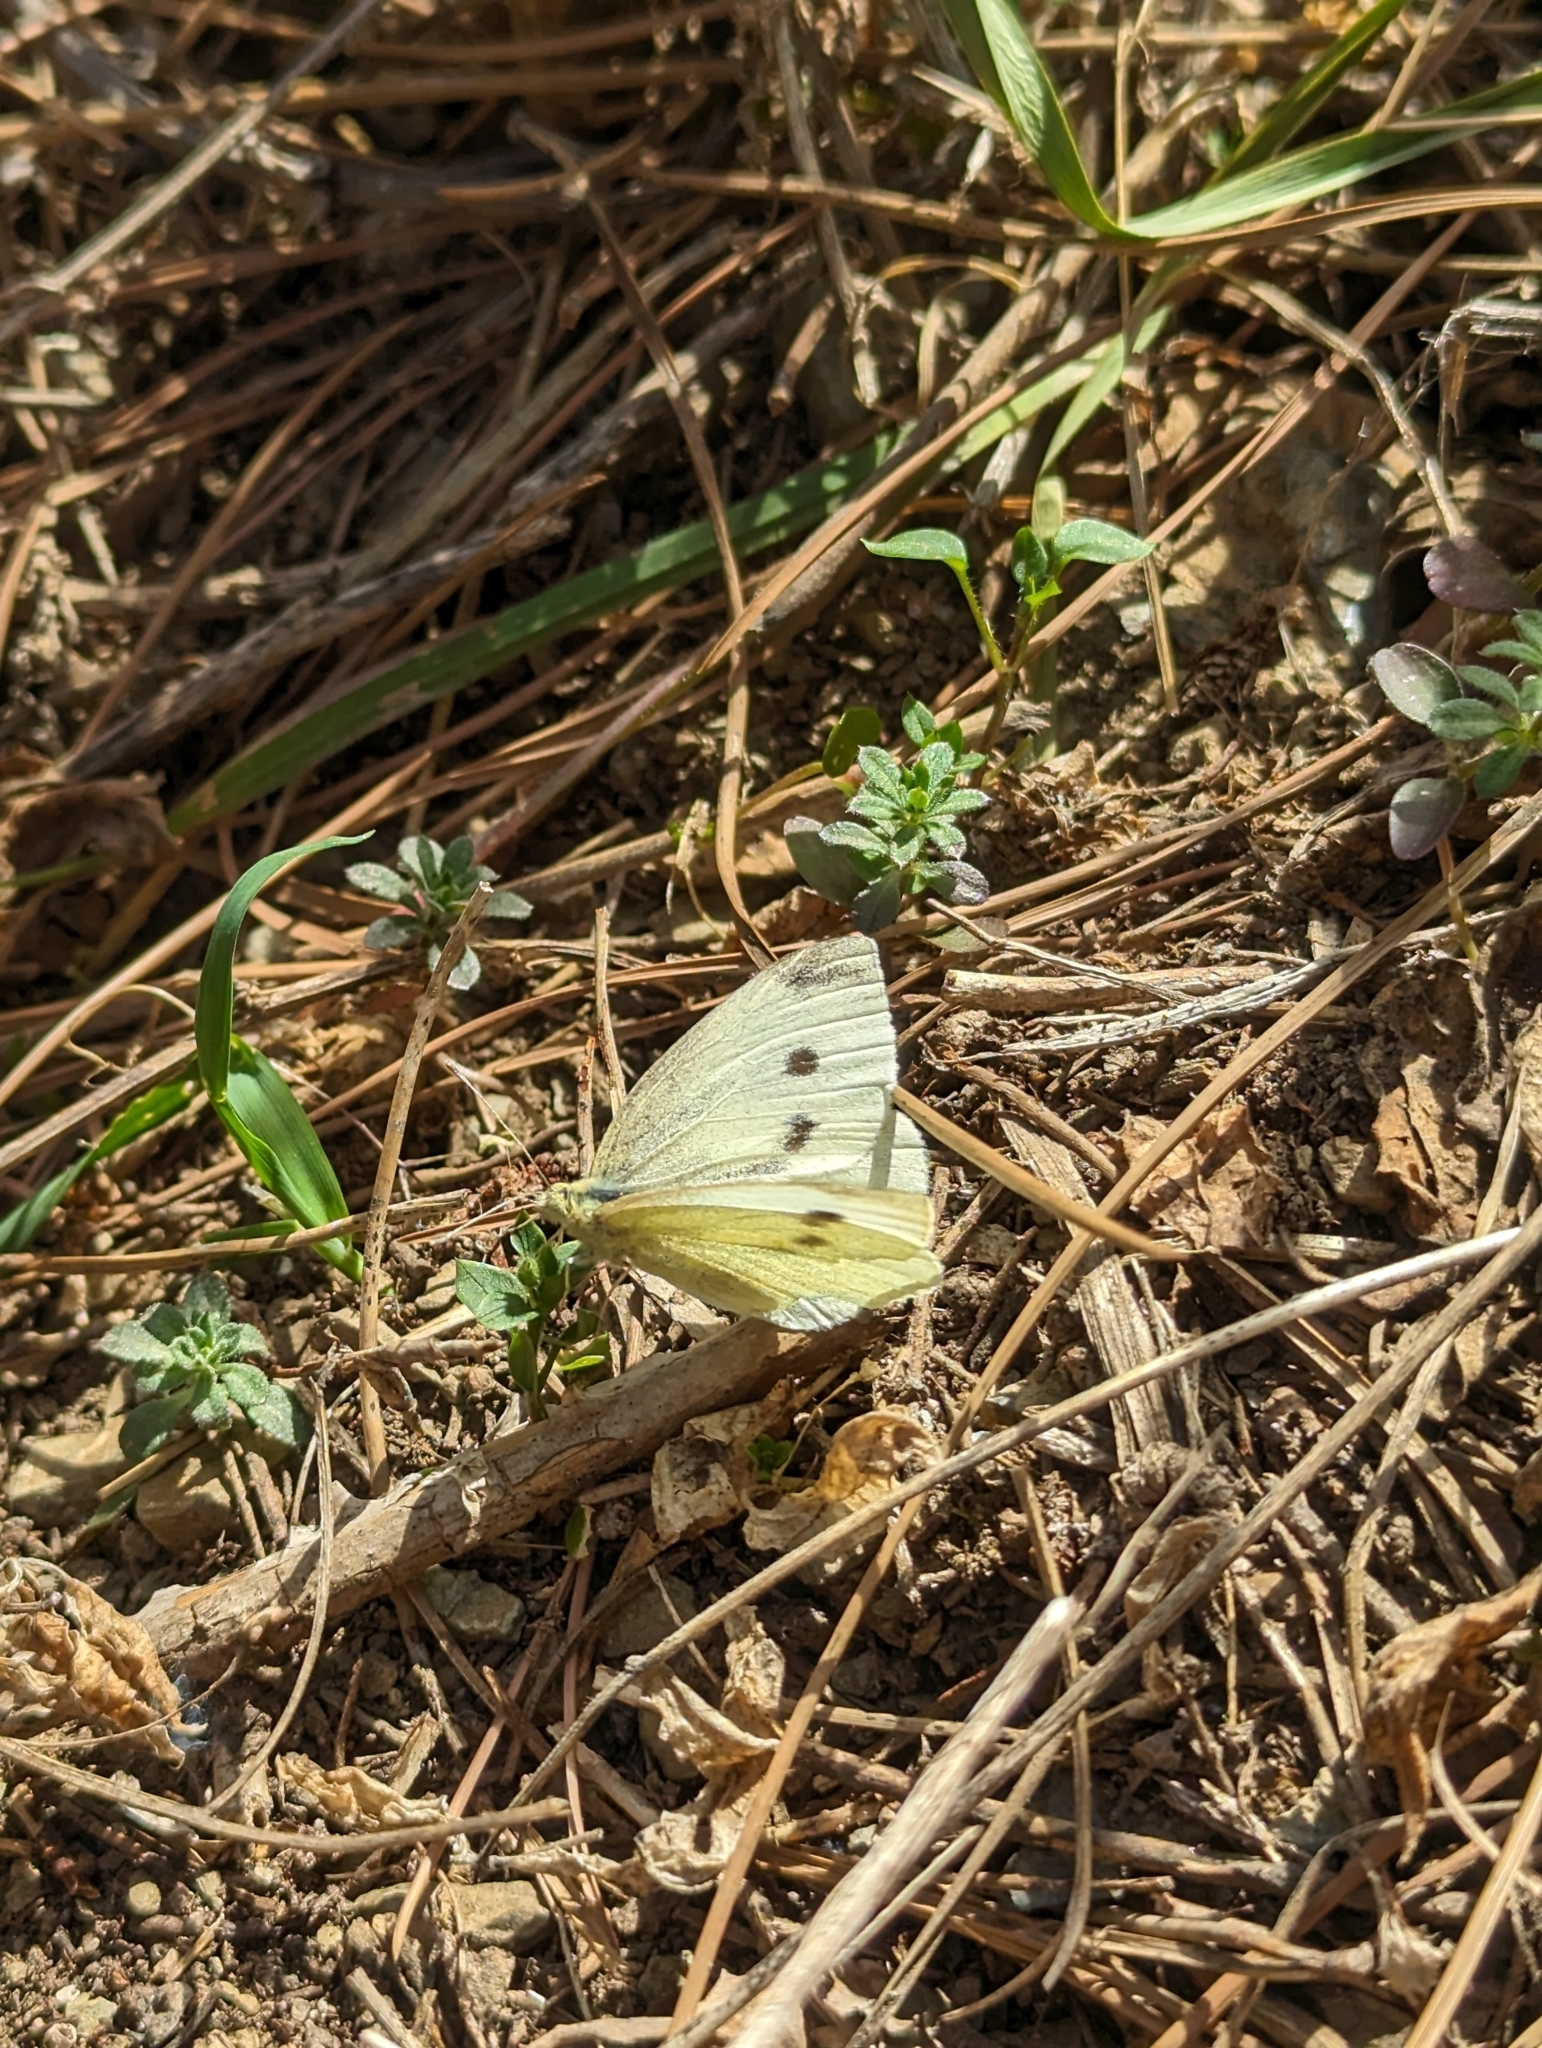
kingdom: Animalia
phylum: Arthropoda
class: Insecta
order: Lepidoptera
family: Pieridae
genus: Pieris
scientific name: Pieris rapae
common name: Small white
